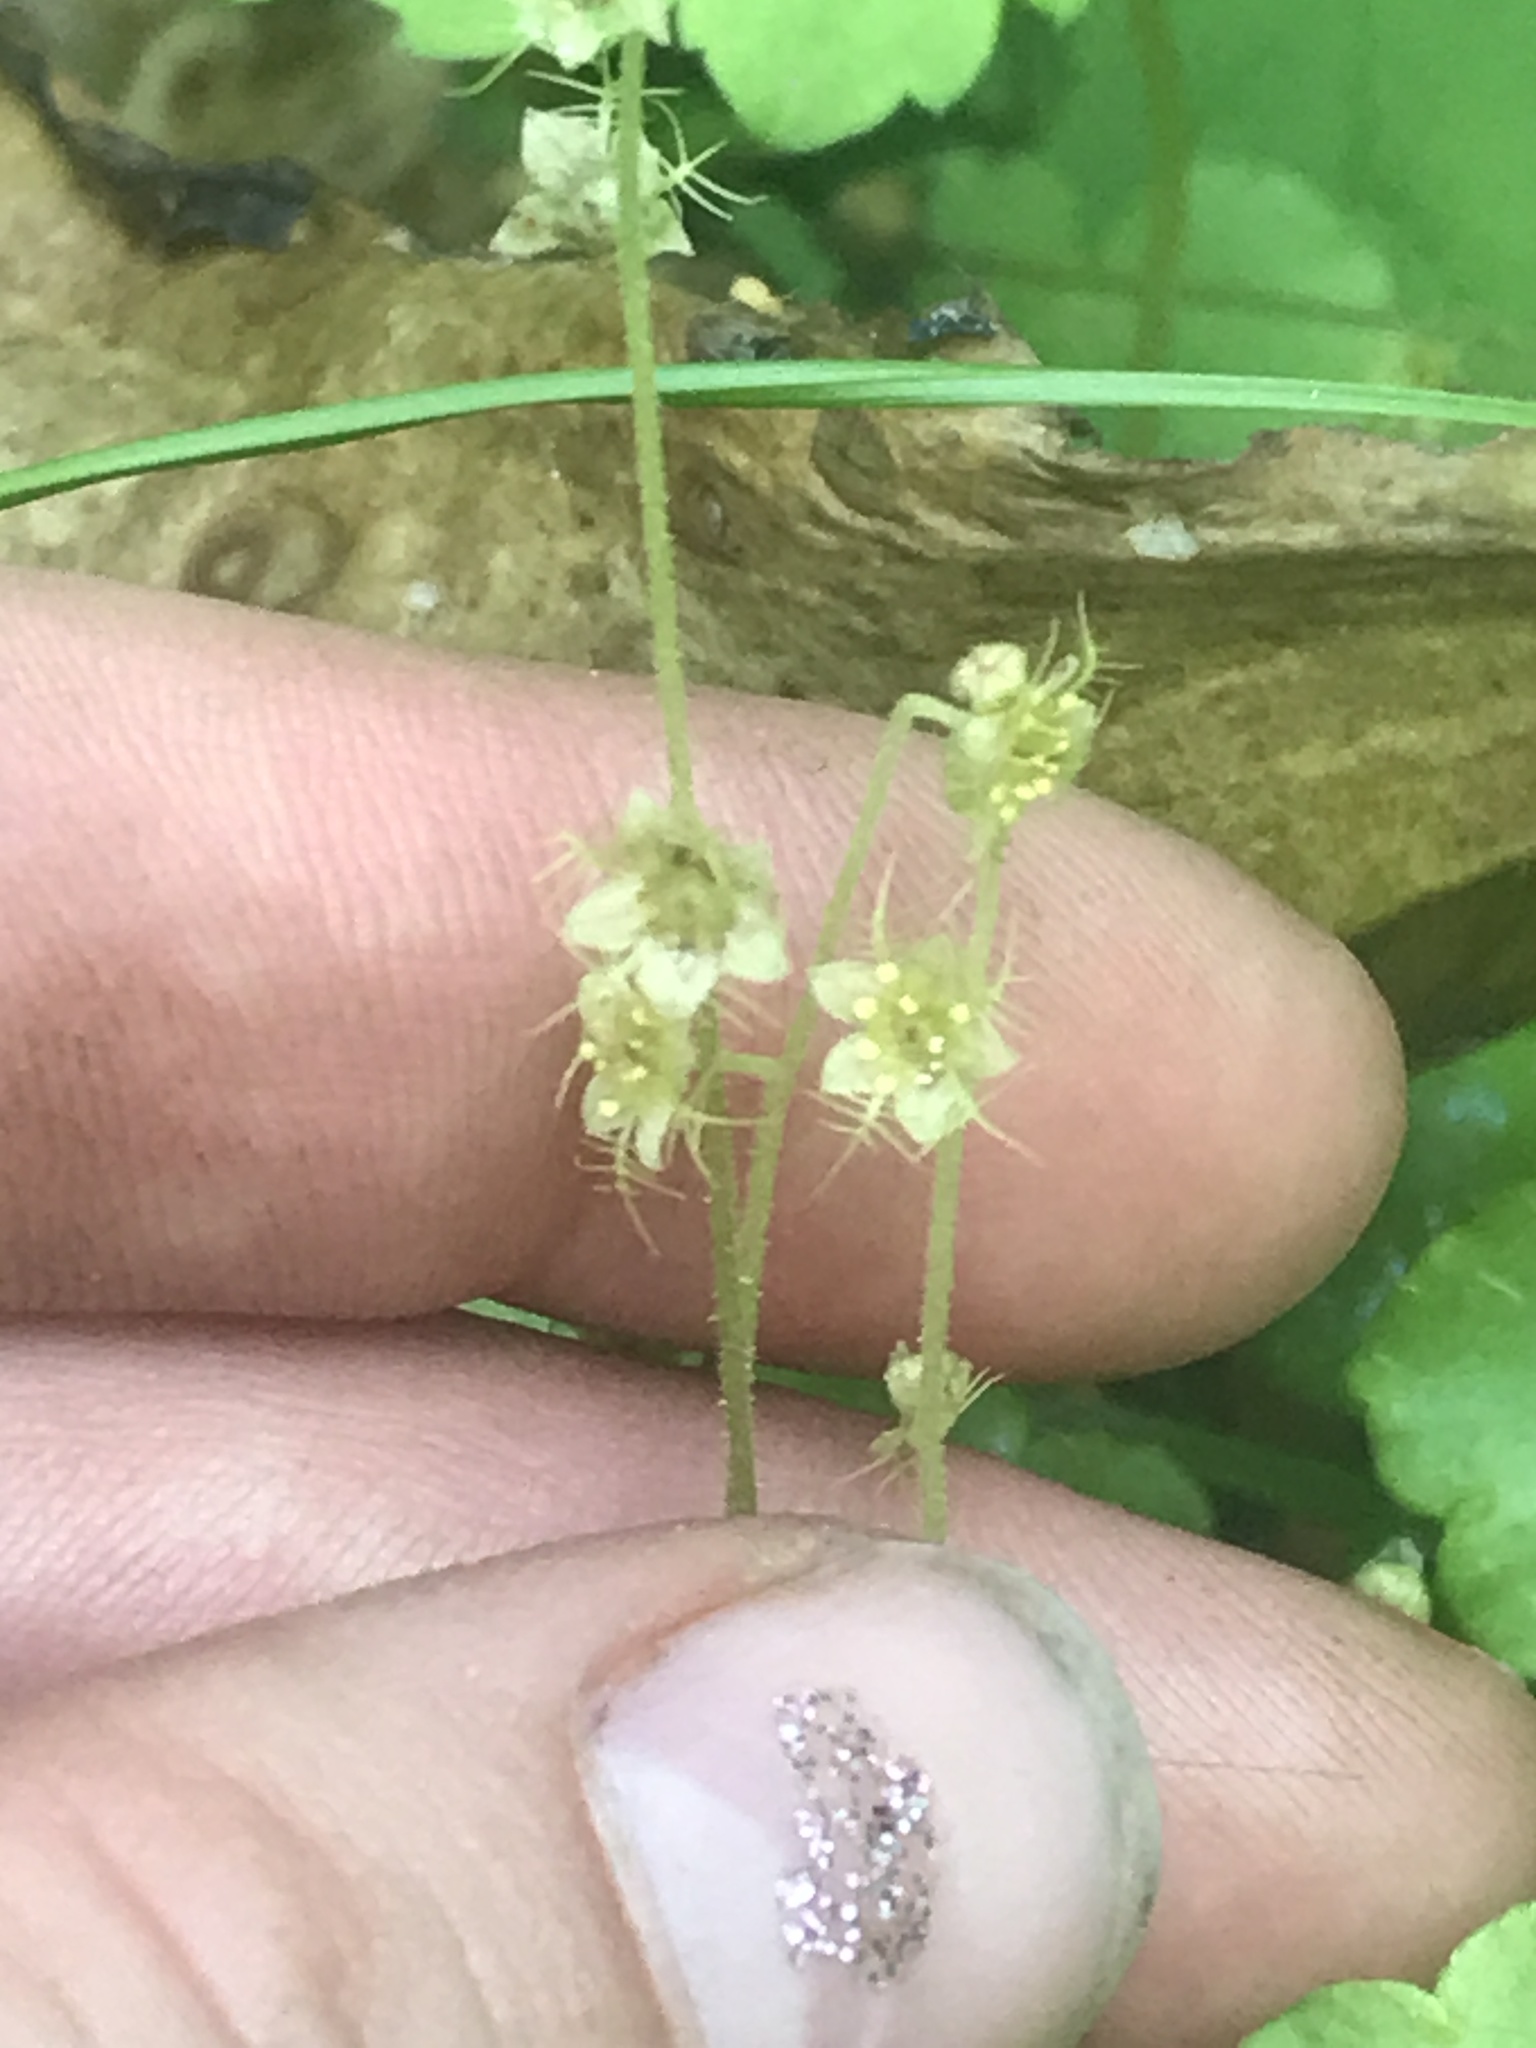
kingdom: Plantae
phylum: Tracheophyta
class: Magnoliopsida
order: Saxifragales
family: Saxifragaceae
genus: Mitella
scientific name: Mitella nuda
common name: Bare-stemmed bishop's-cap
